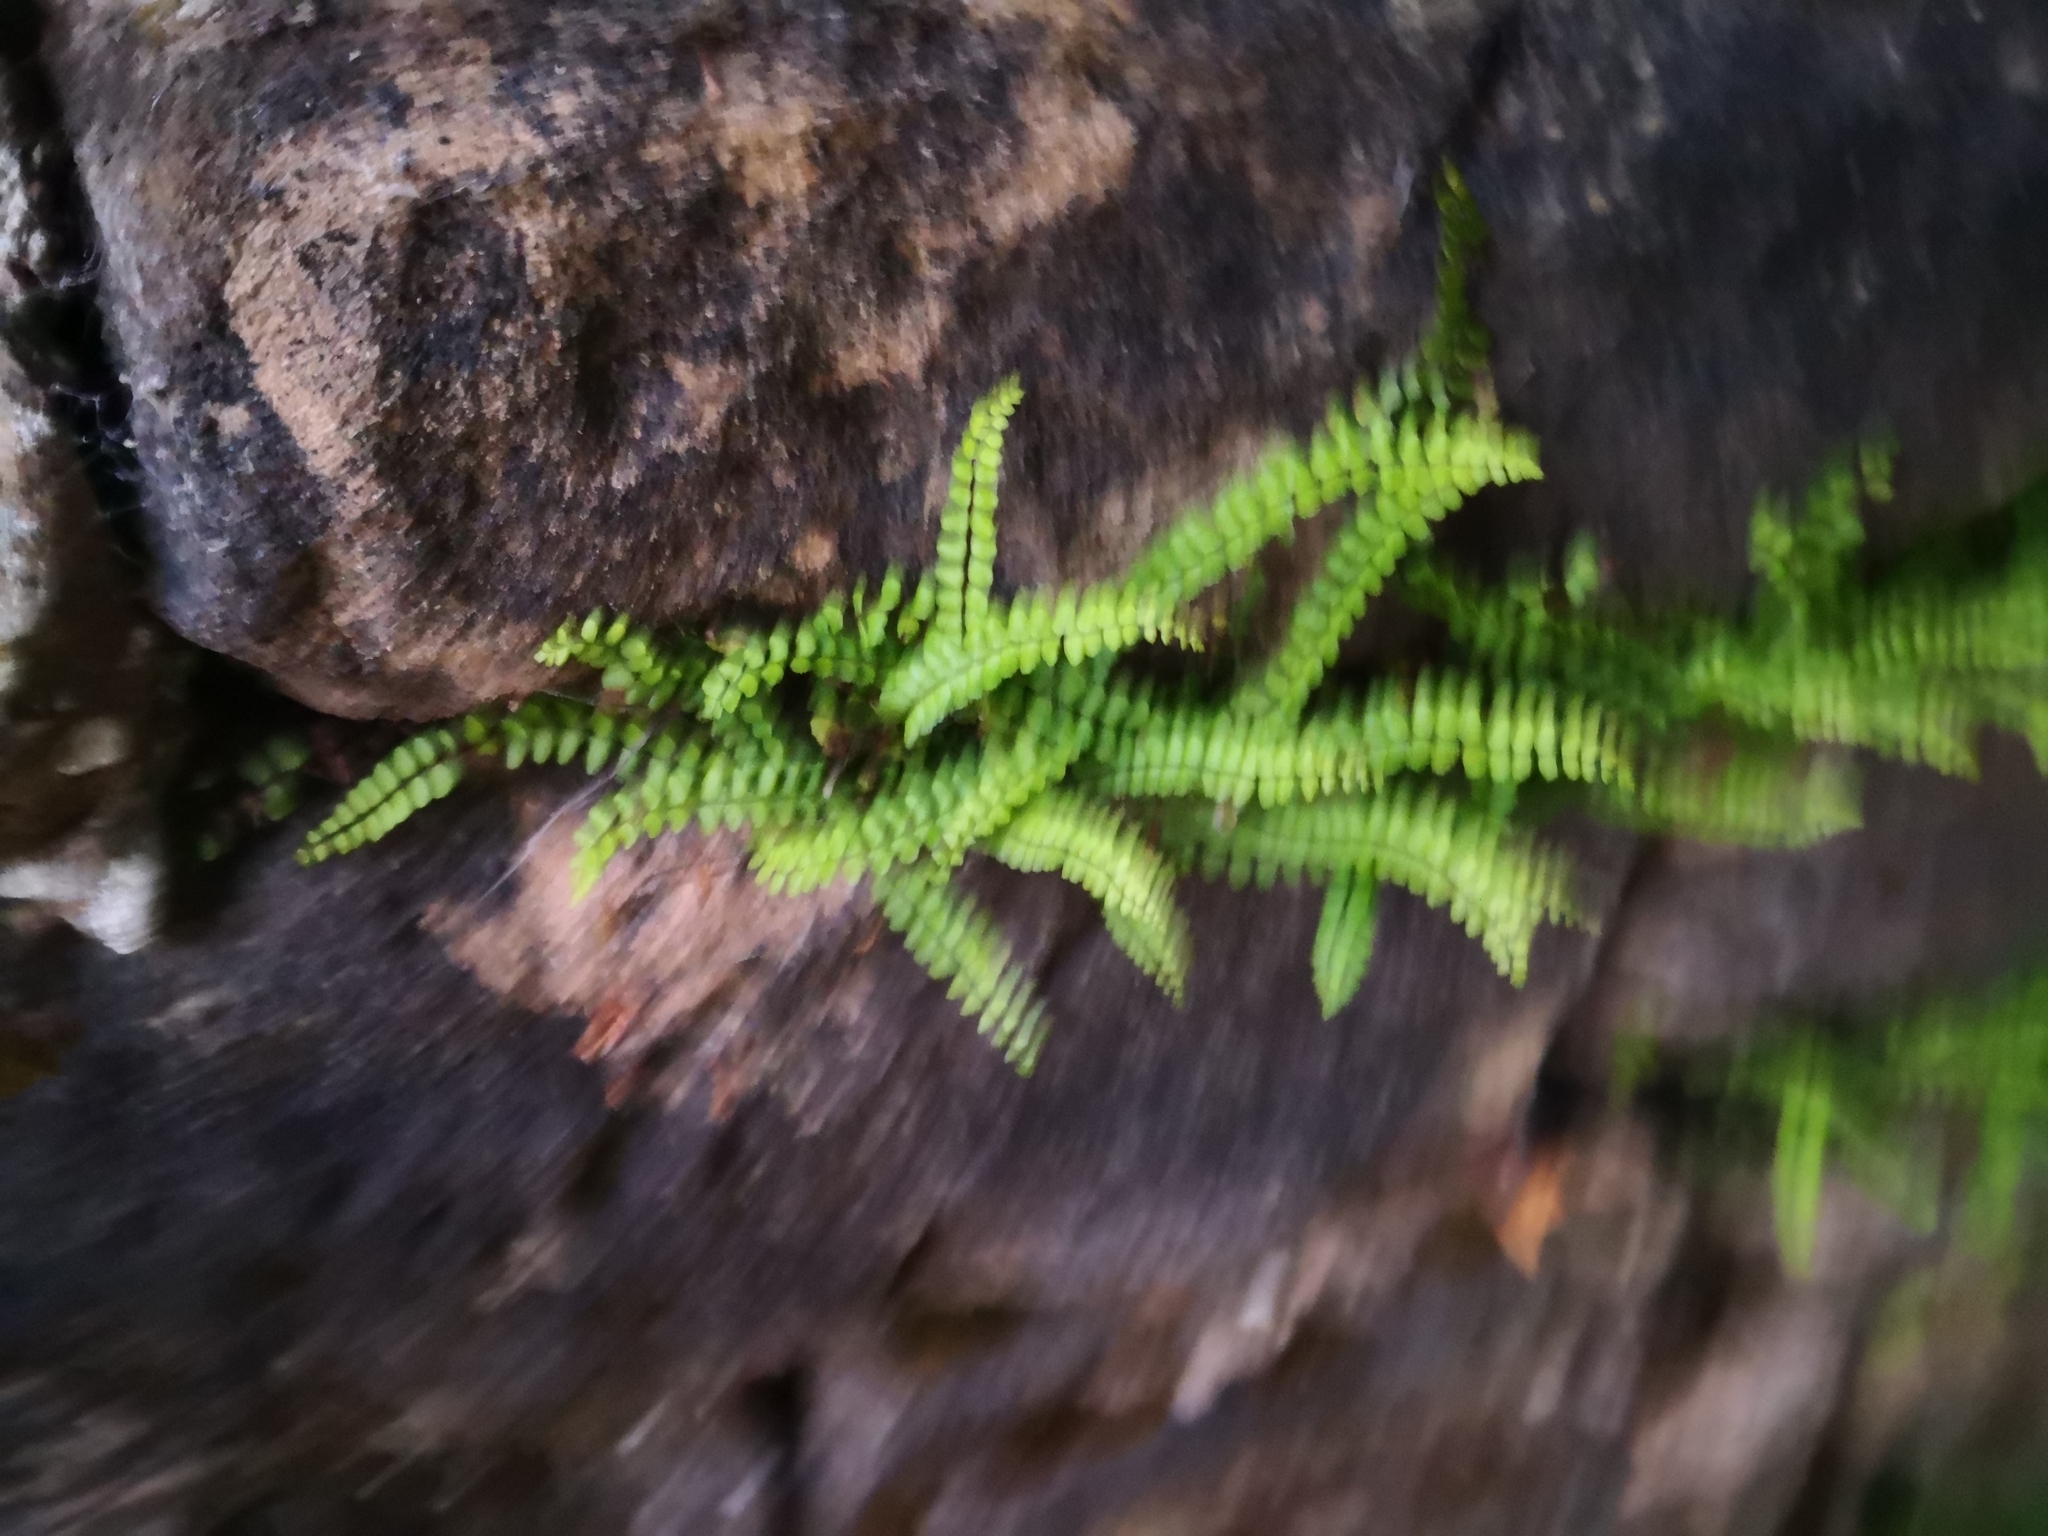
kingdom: Plantae
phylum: Tracheophyta
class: Polypodiopsida
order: Polypodiales
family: Aspleniaceae
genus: Asplenium
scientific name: Asplenium trichomanes
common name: Maidenhair spleenwort
